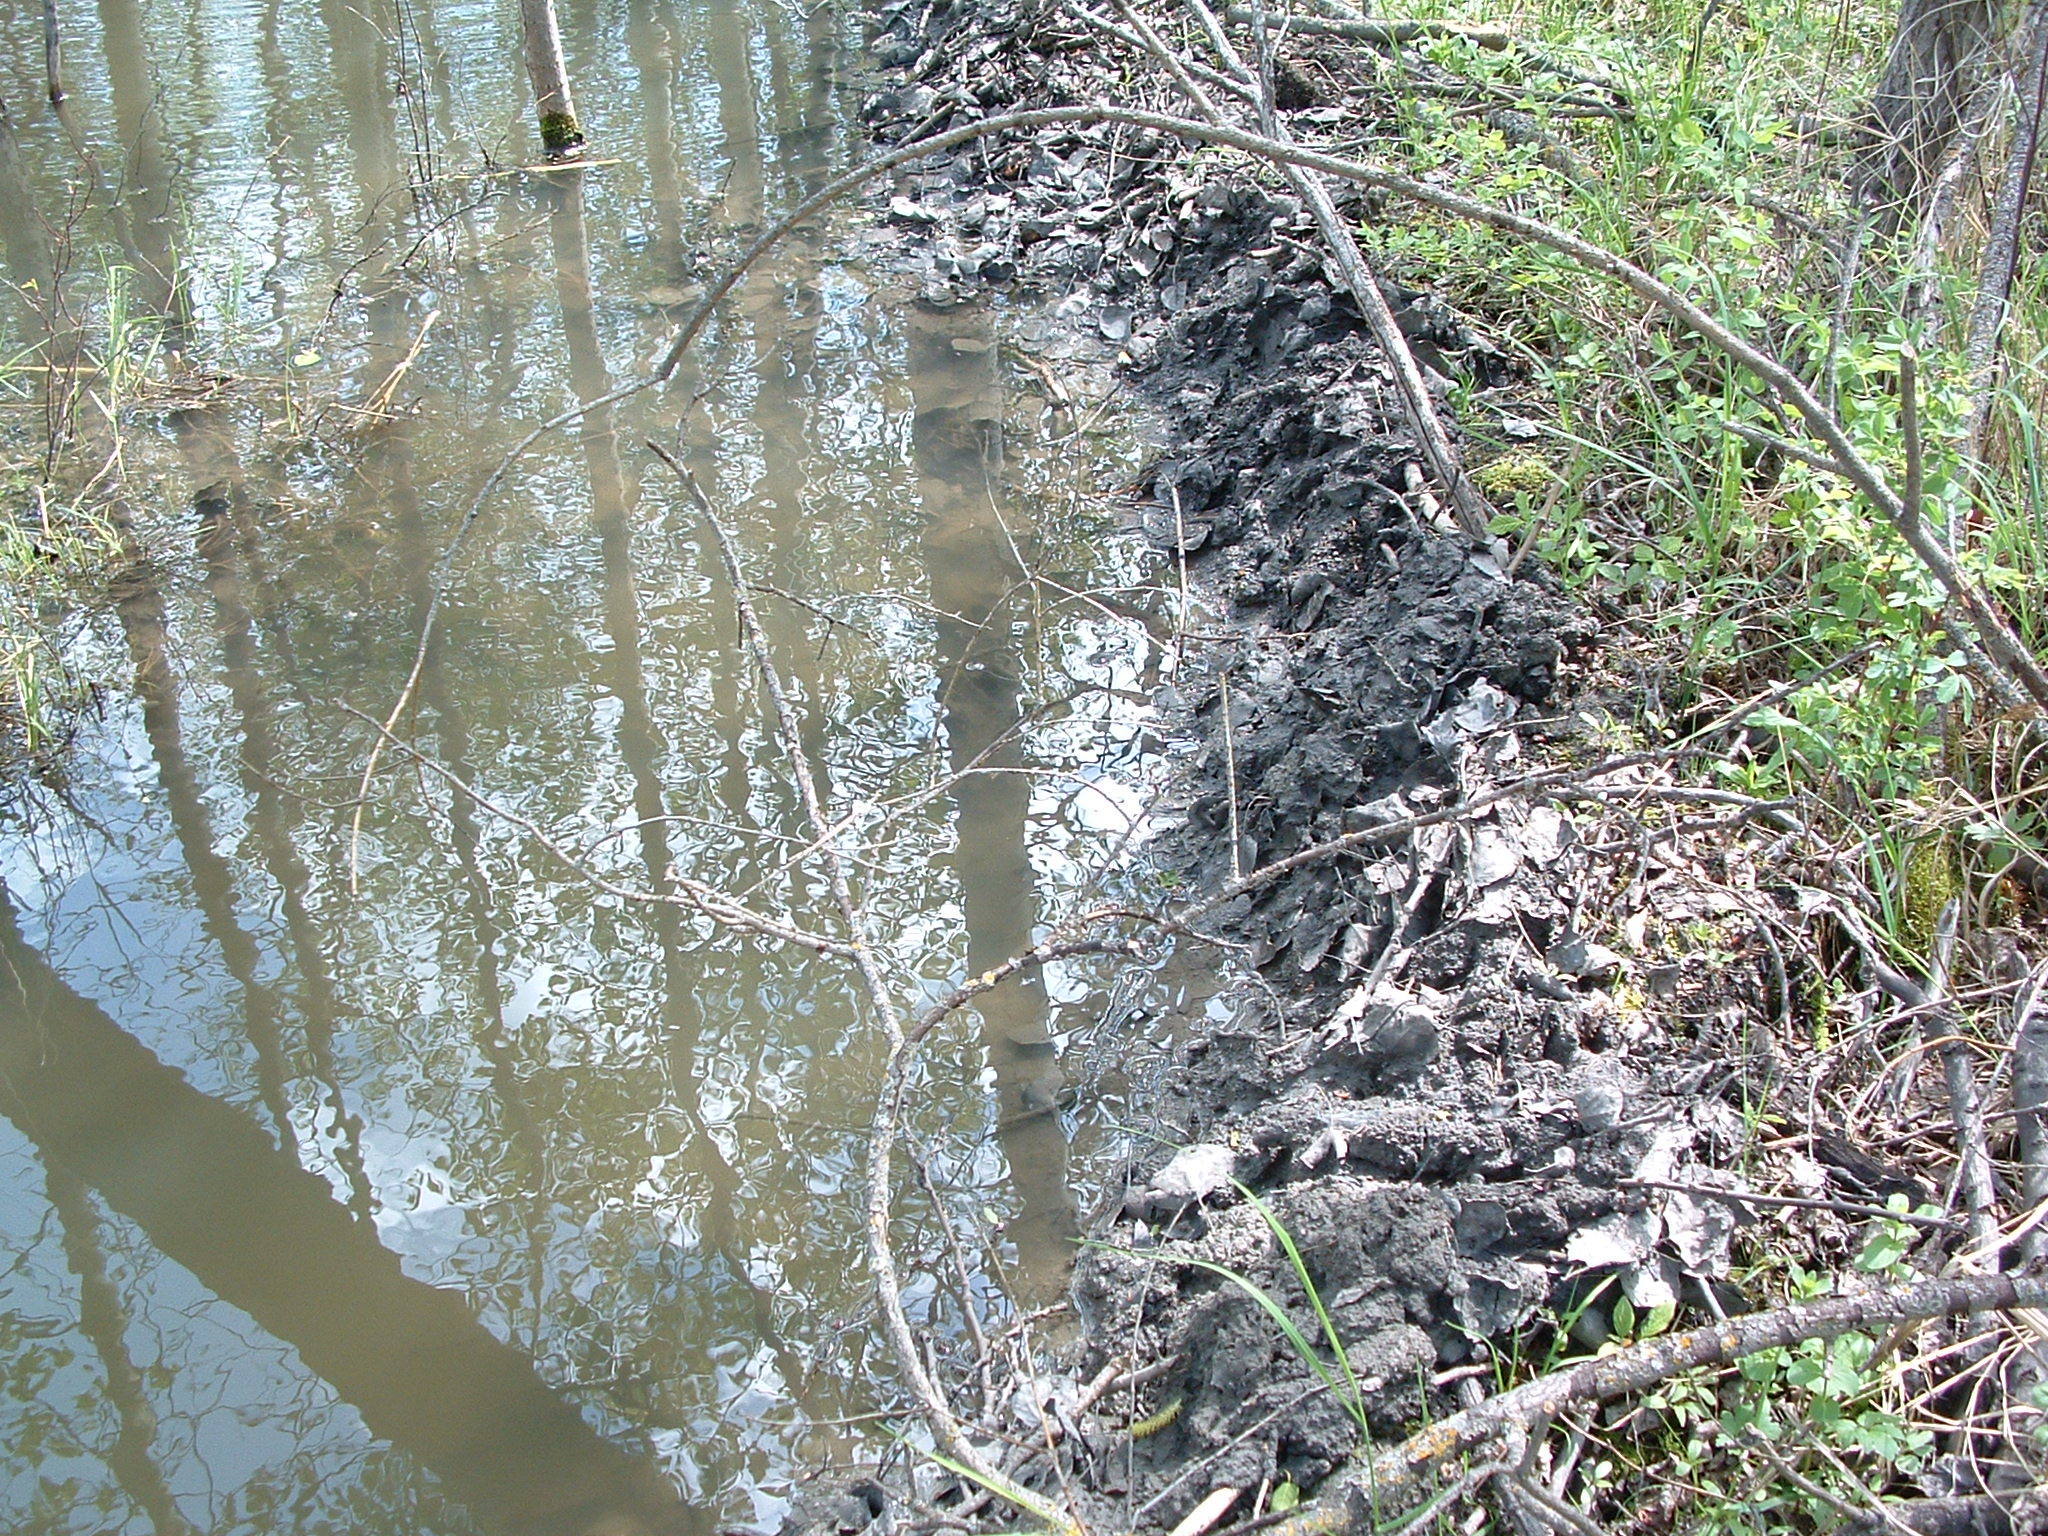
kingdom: Animalia
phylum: Chordata
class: Mammalia
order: Rodentia
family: Castoridae
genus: Castor
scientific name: Castor canadensis
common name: American beaver
